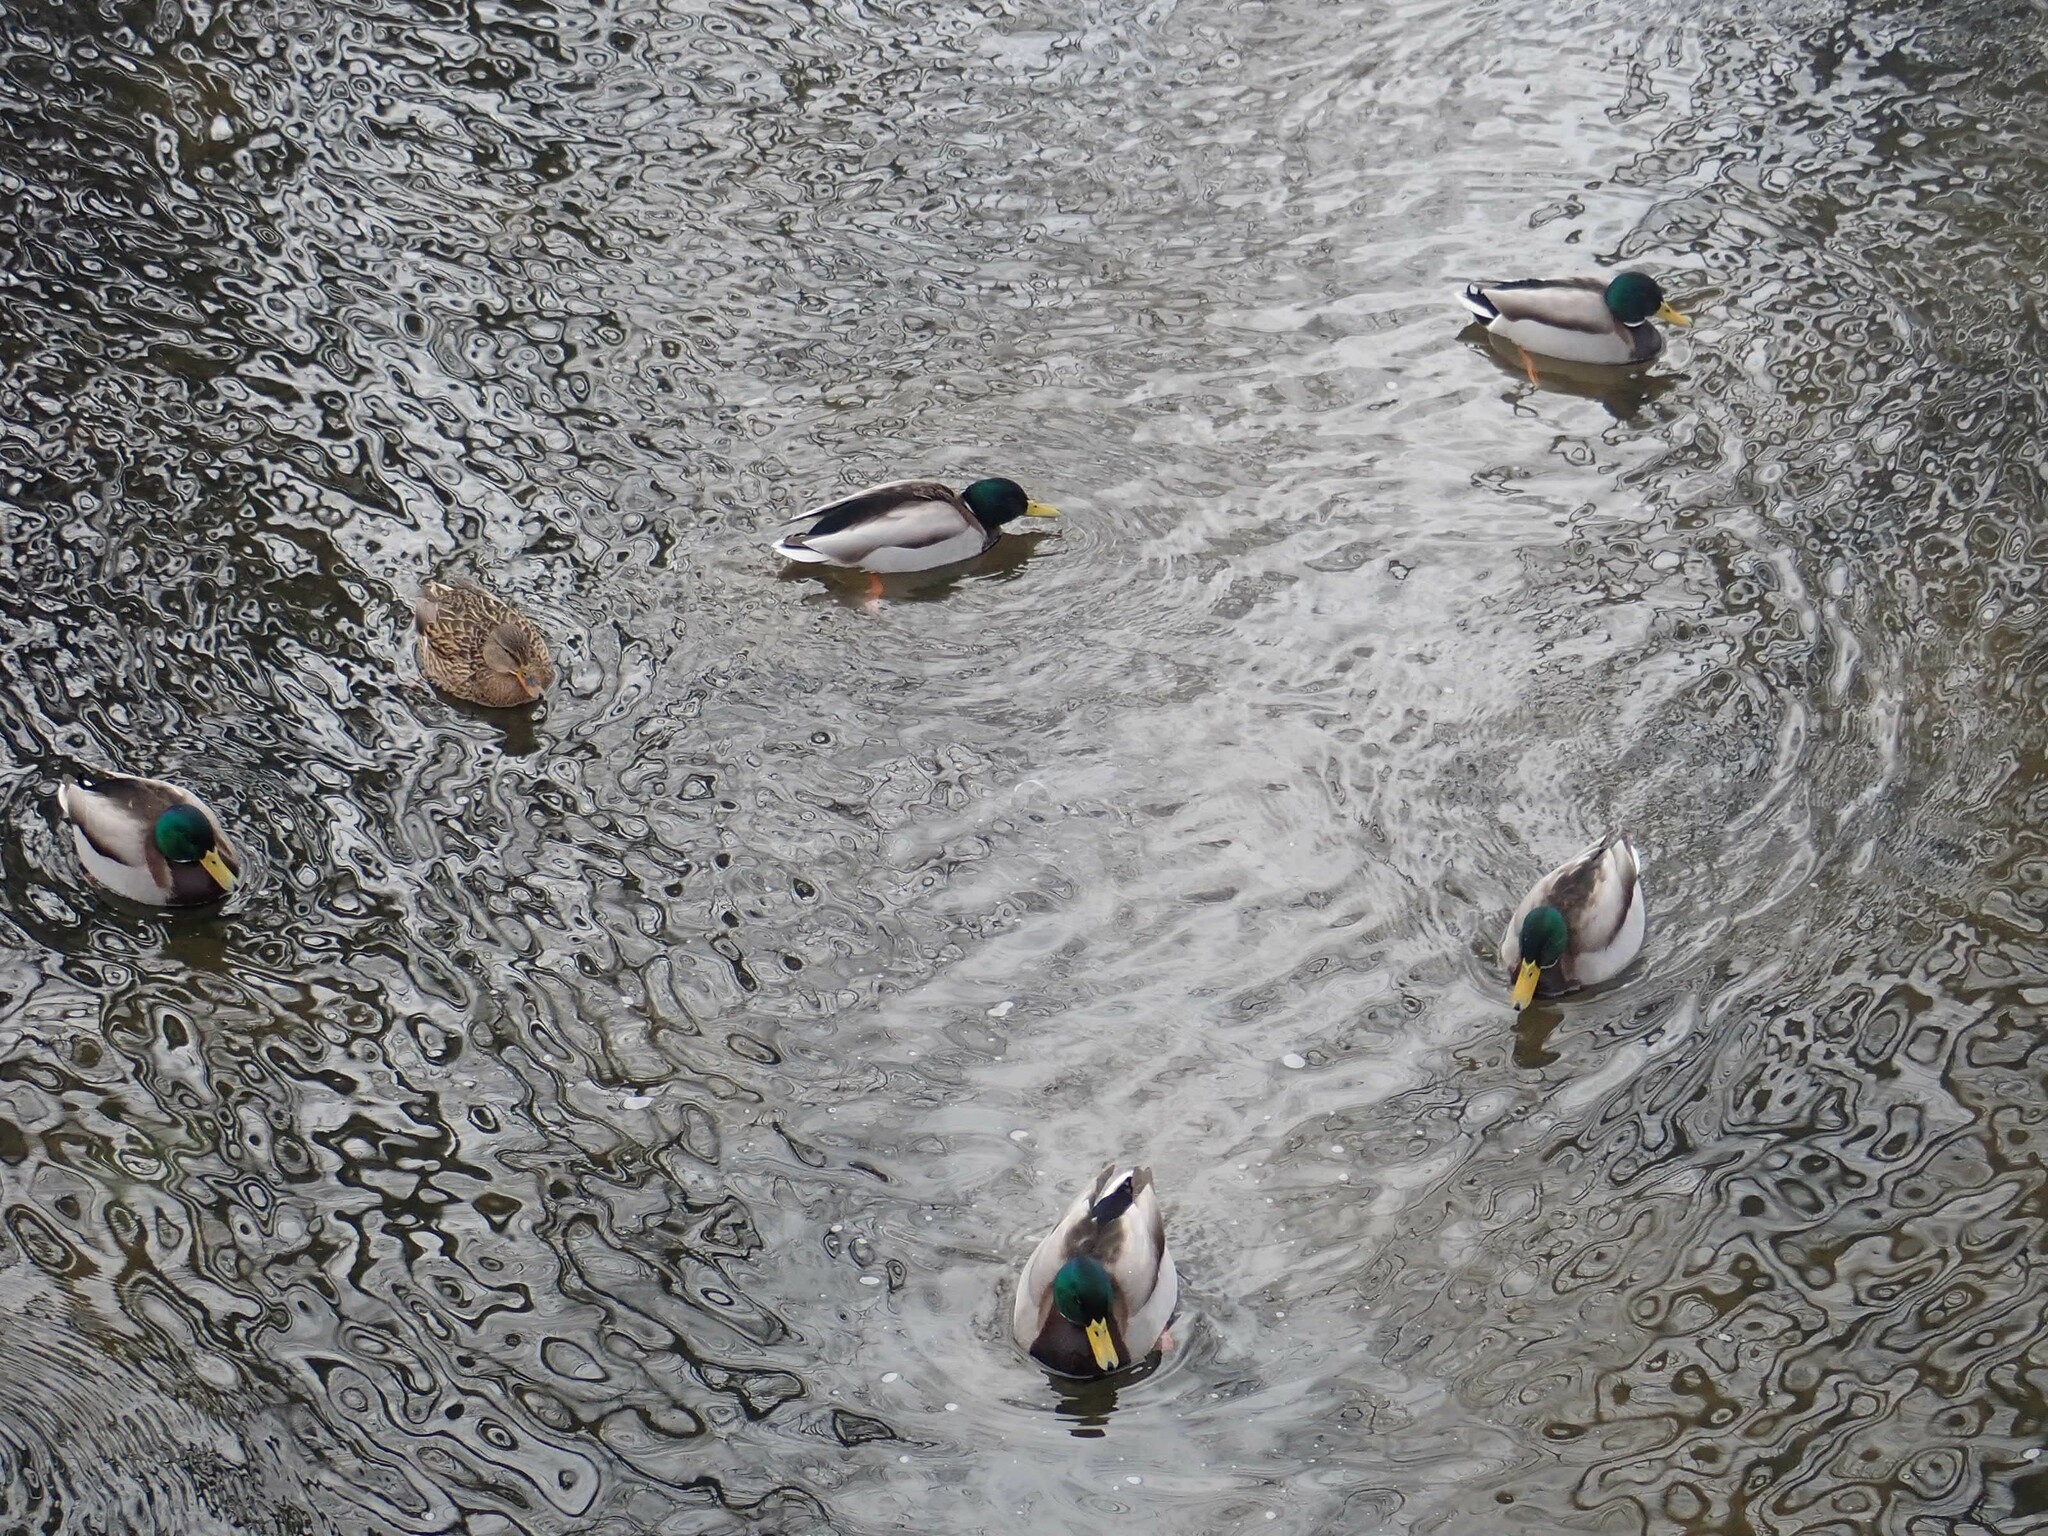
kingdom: Animalia
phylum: Chordata
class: Aves
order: Anseriformes
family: Anatidae
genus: Anas
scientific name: Anas platyrhynchos
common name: Mallard
